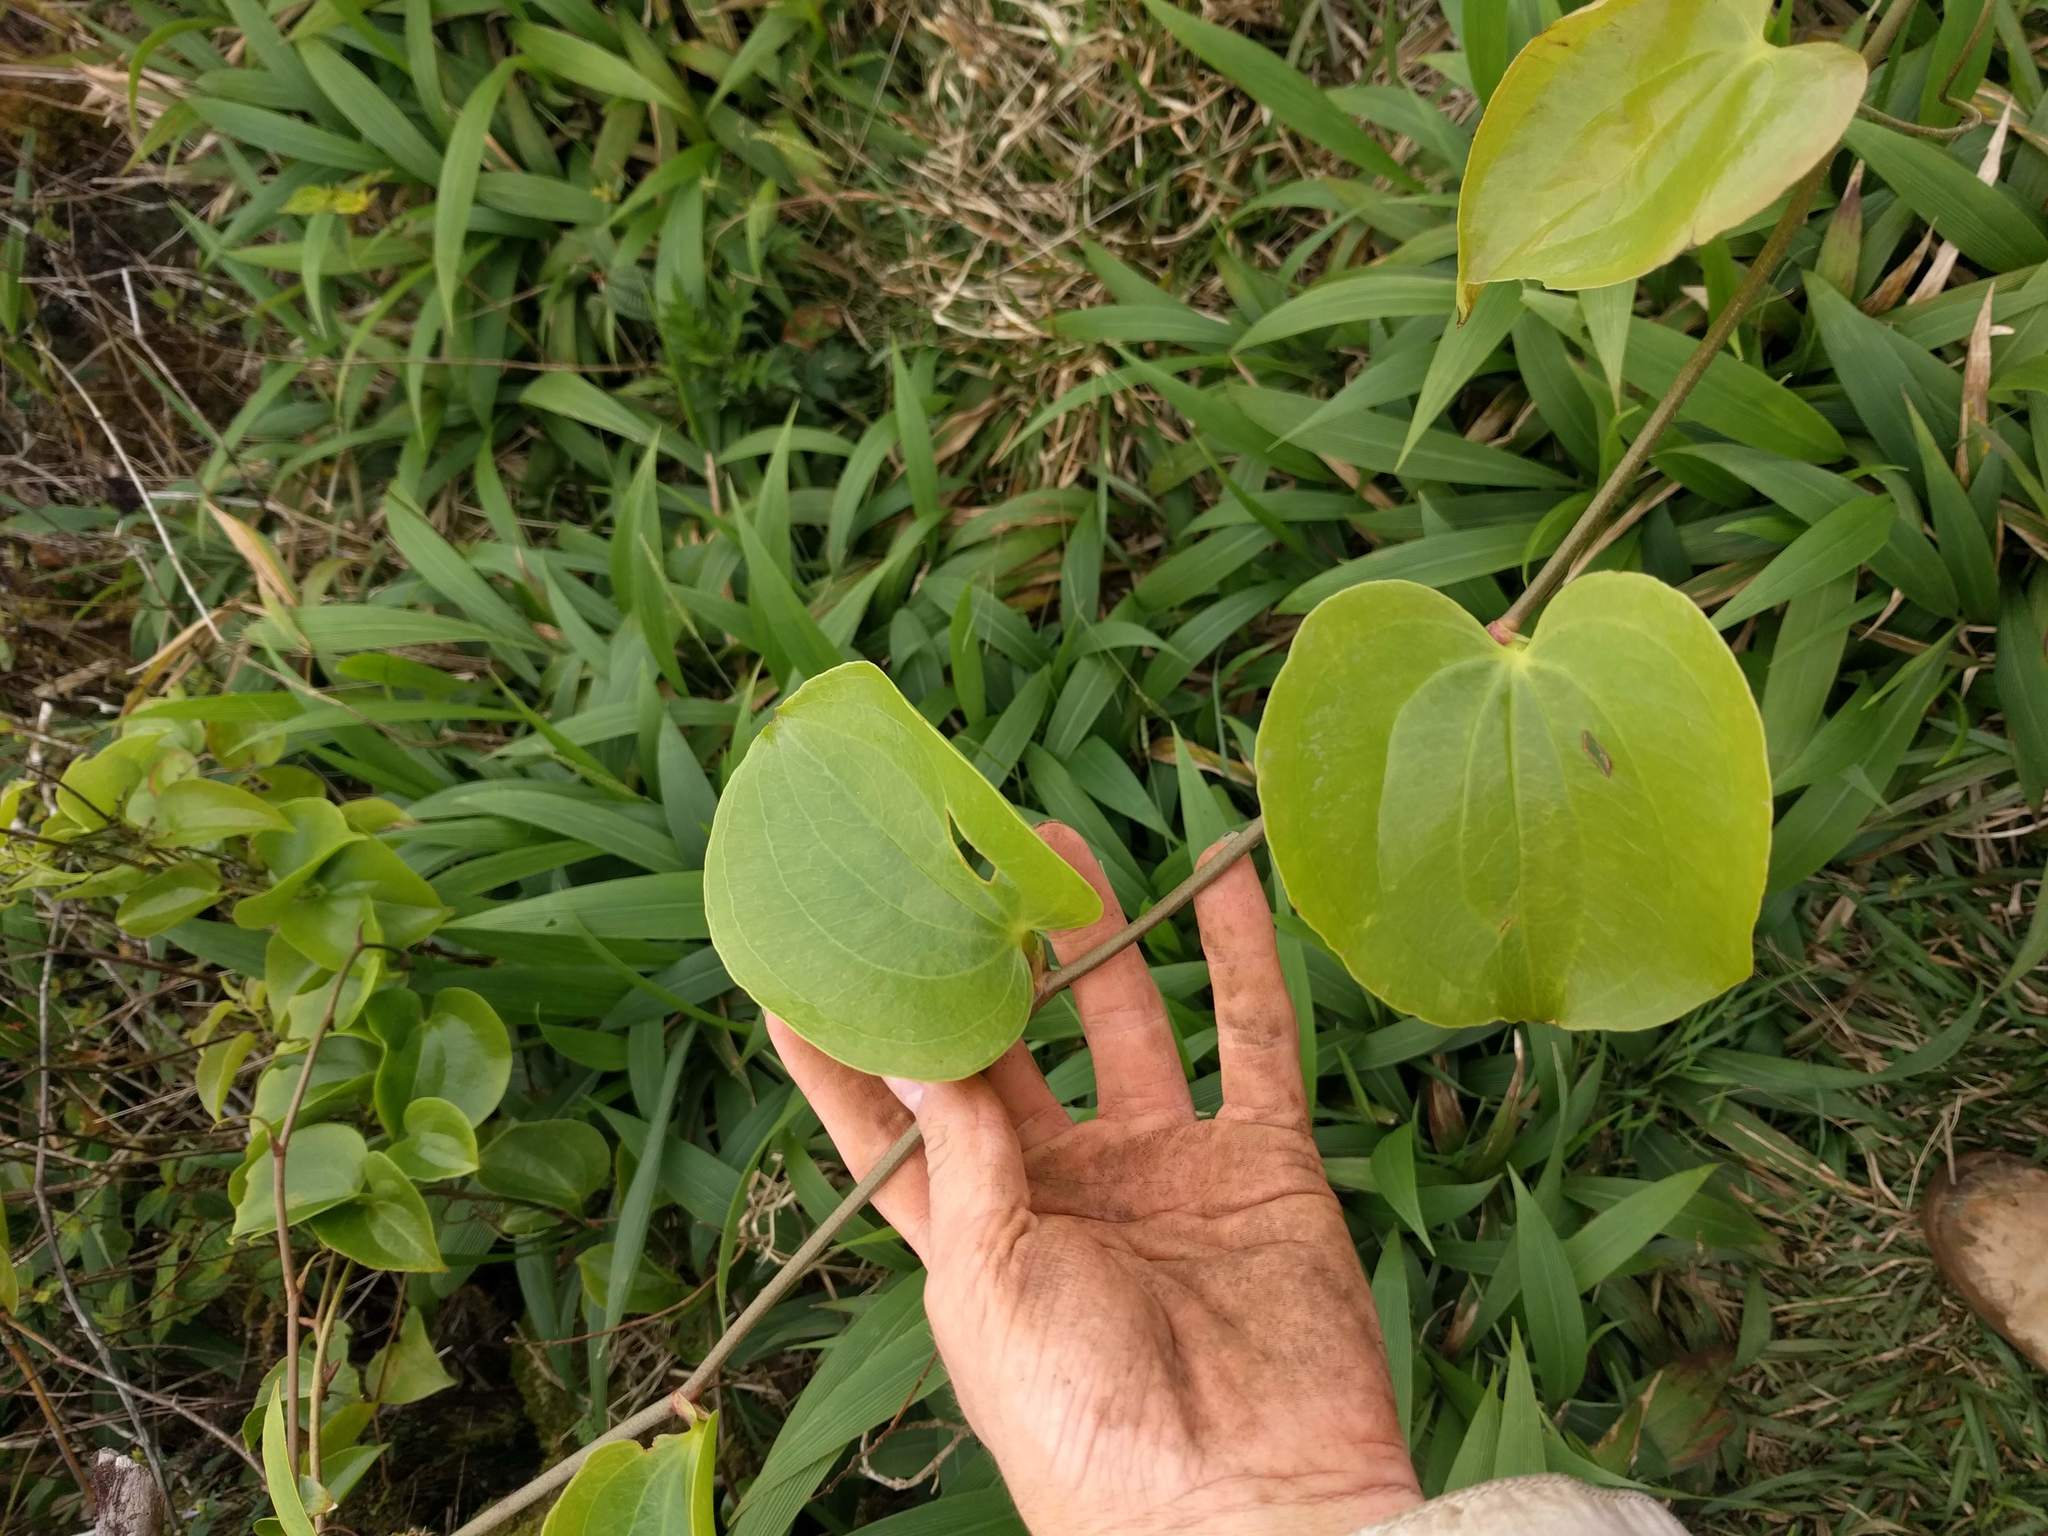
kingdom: Plantae
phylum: Tracheophyta
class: Liliopsida
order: Liliales
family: Smilacaceae
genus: Smilax
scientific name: Smilax melastomifolia
